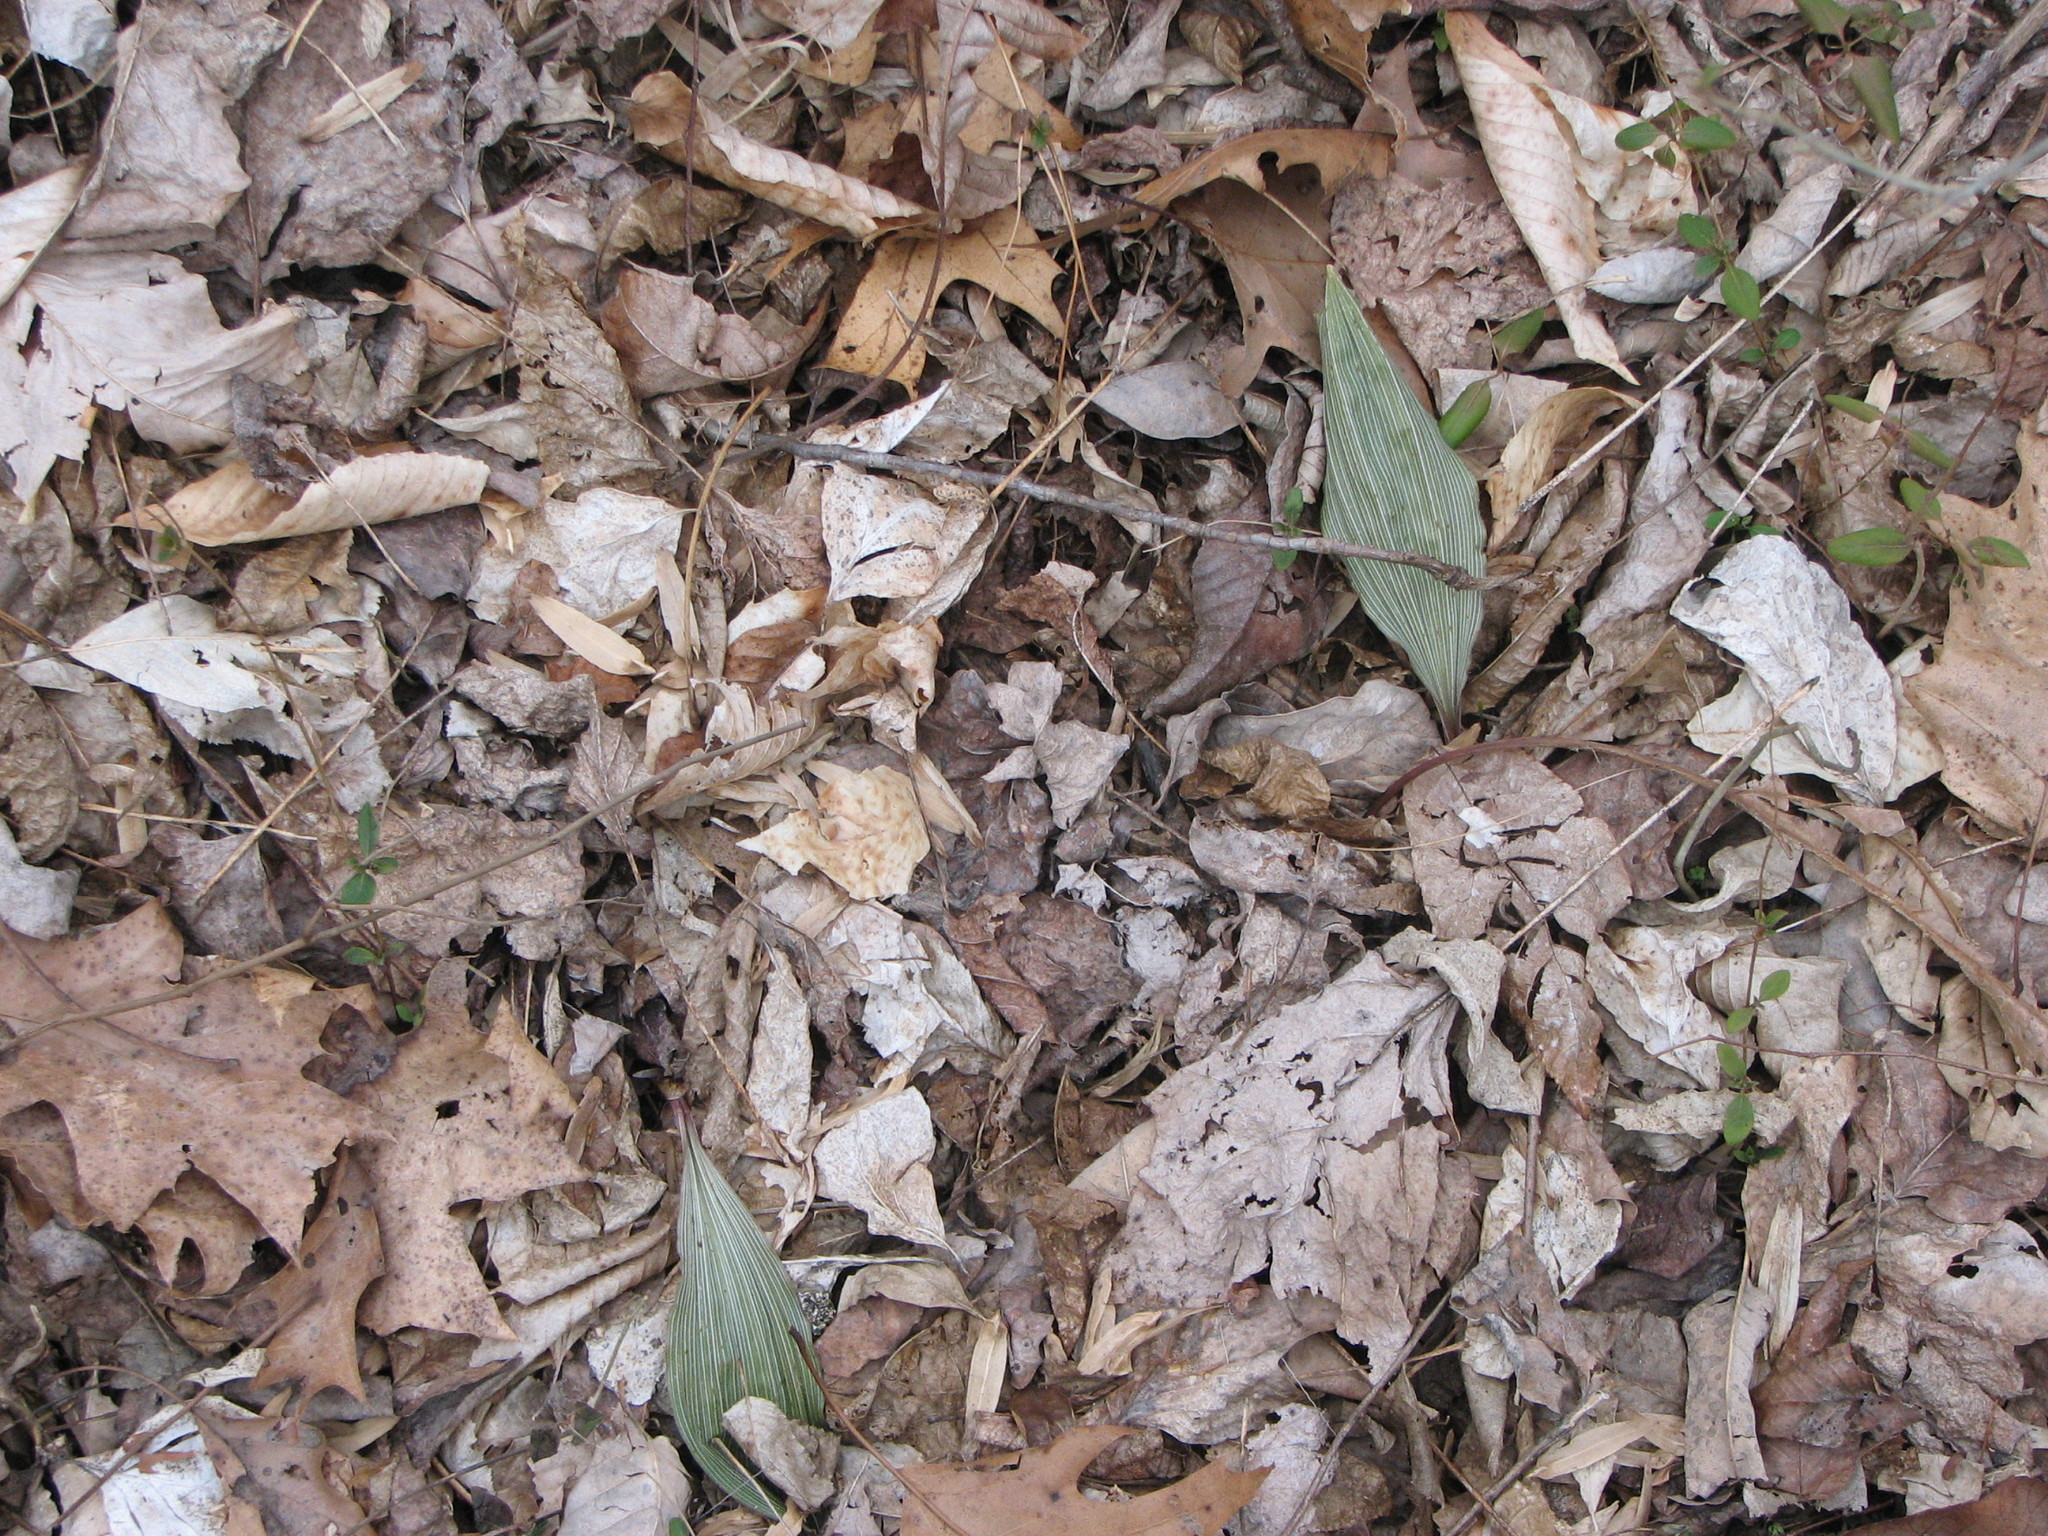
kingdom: Plantae
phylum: Tracheophyta
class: Liliopsida
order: Asparagales
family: Orchidaceae
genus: Aplectrum
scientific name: Aplectrum hyemale
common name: Adam-and-eve
